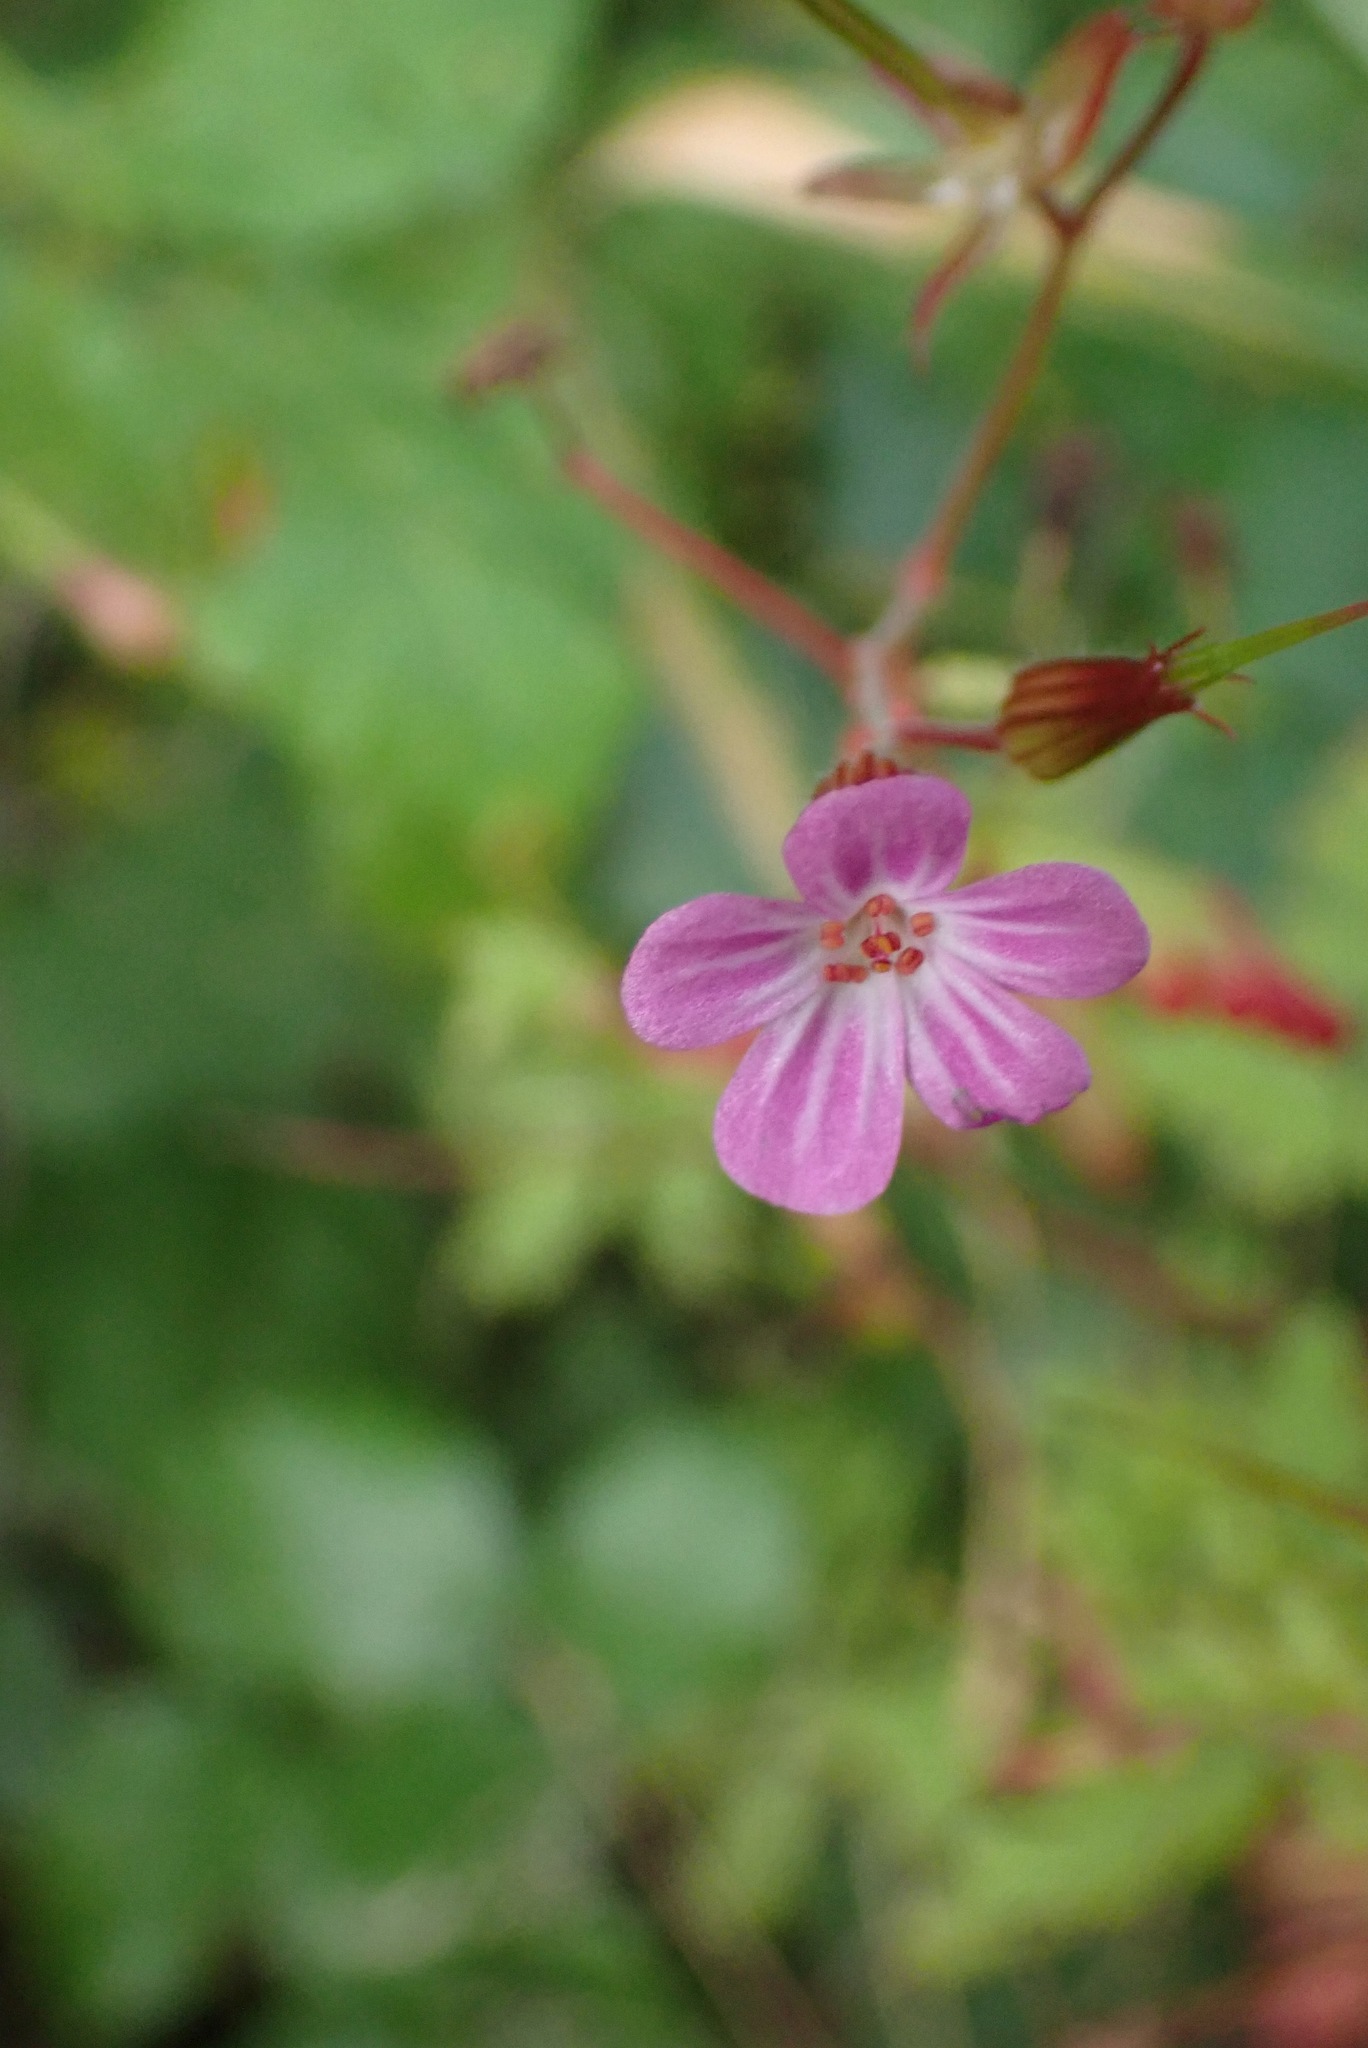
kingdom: Plantae
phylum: Tracheophyta
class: Magnoliopsida
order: Geraniales
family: Geraniaceae
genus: Geranium
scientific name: Geranium robertianum
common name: Herb-robert
